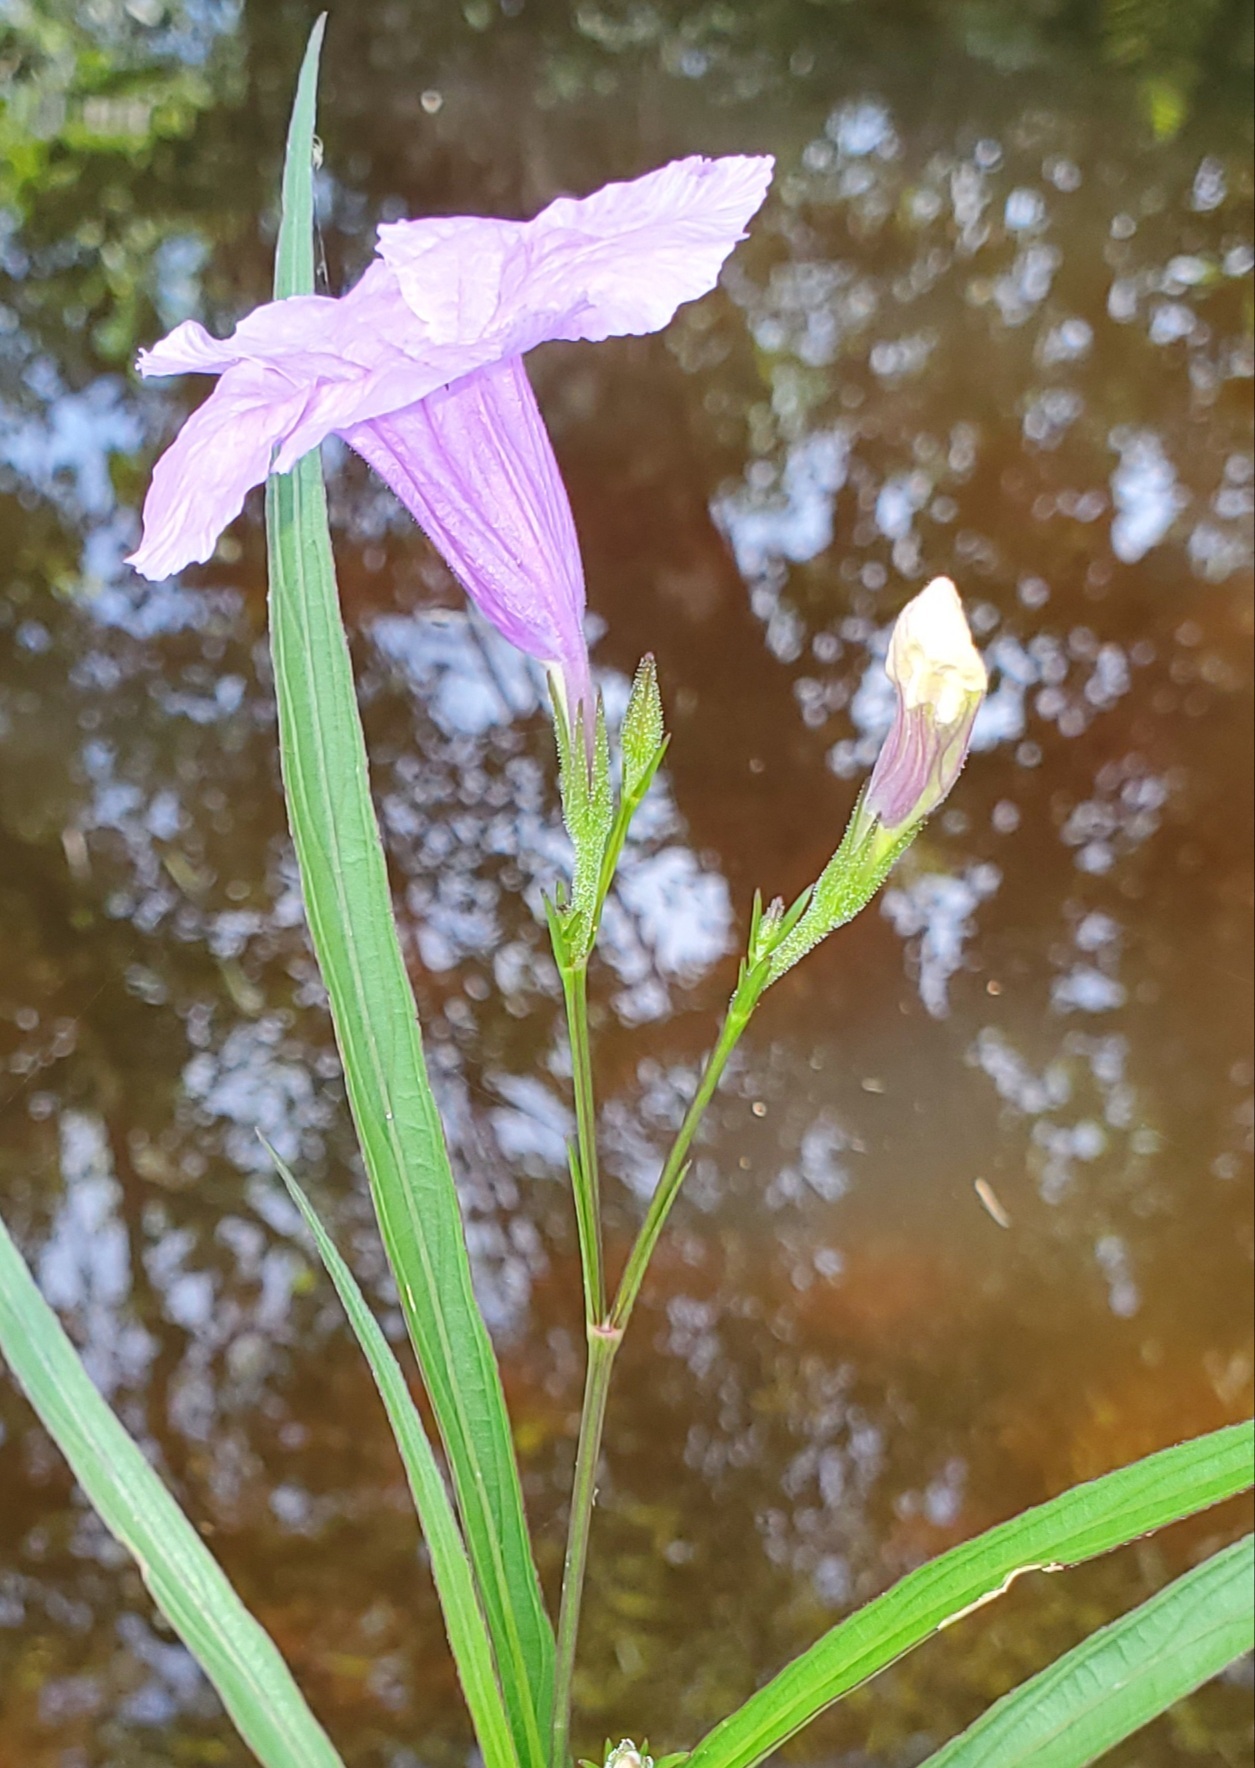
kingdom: Plantae
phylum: Tracheophyta
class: Magnoliopsida
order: Lamiales
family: Acanthaceae
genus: Ruellia
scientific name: Ruellia simplex
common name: Softseed wild petunia
